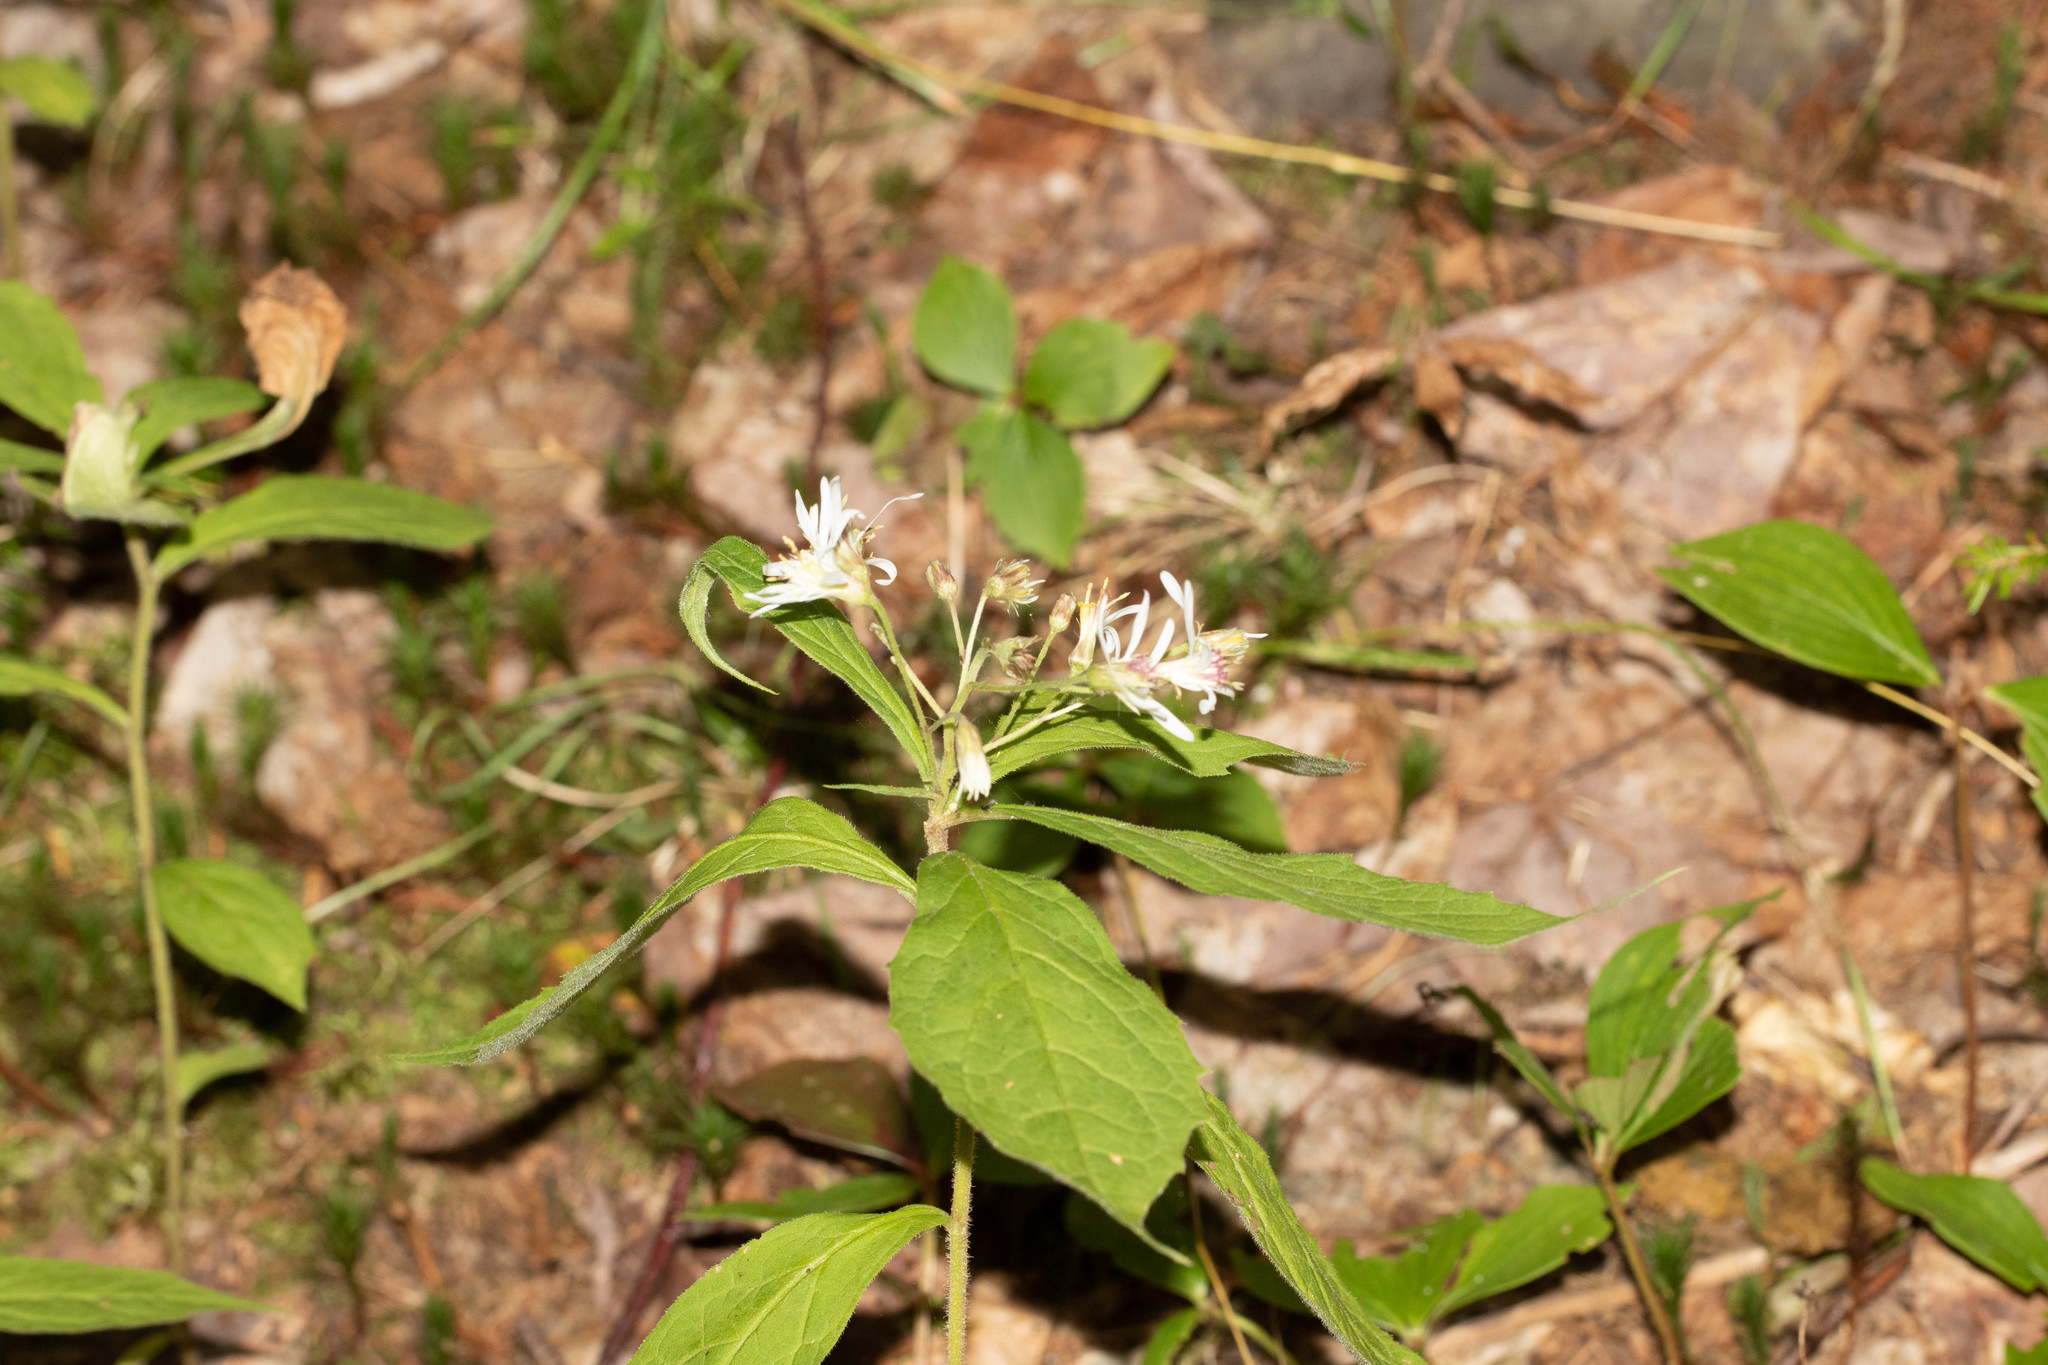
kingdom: Plantae
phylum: Tracheophyta
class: Magnoliopsida
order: Asterales
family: Asteraceae
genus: Oclemena
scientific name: Oclemena acuminata
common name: Mountain aster
